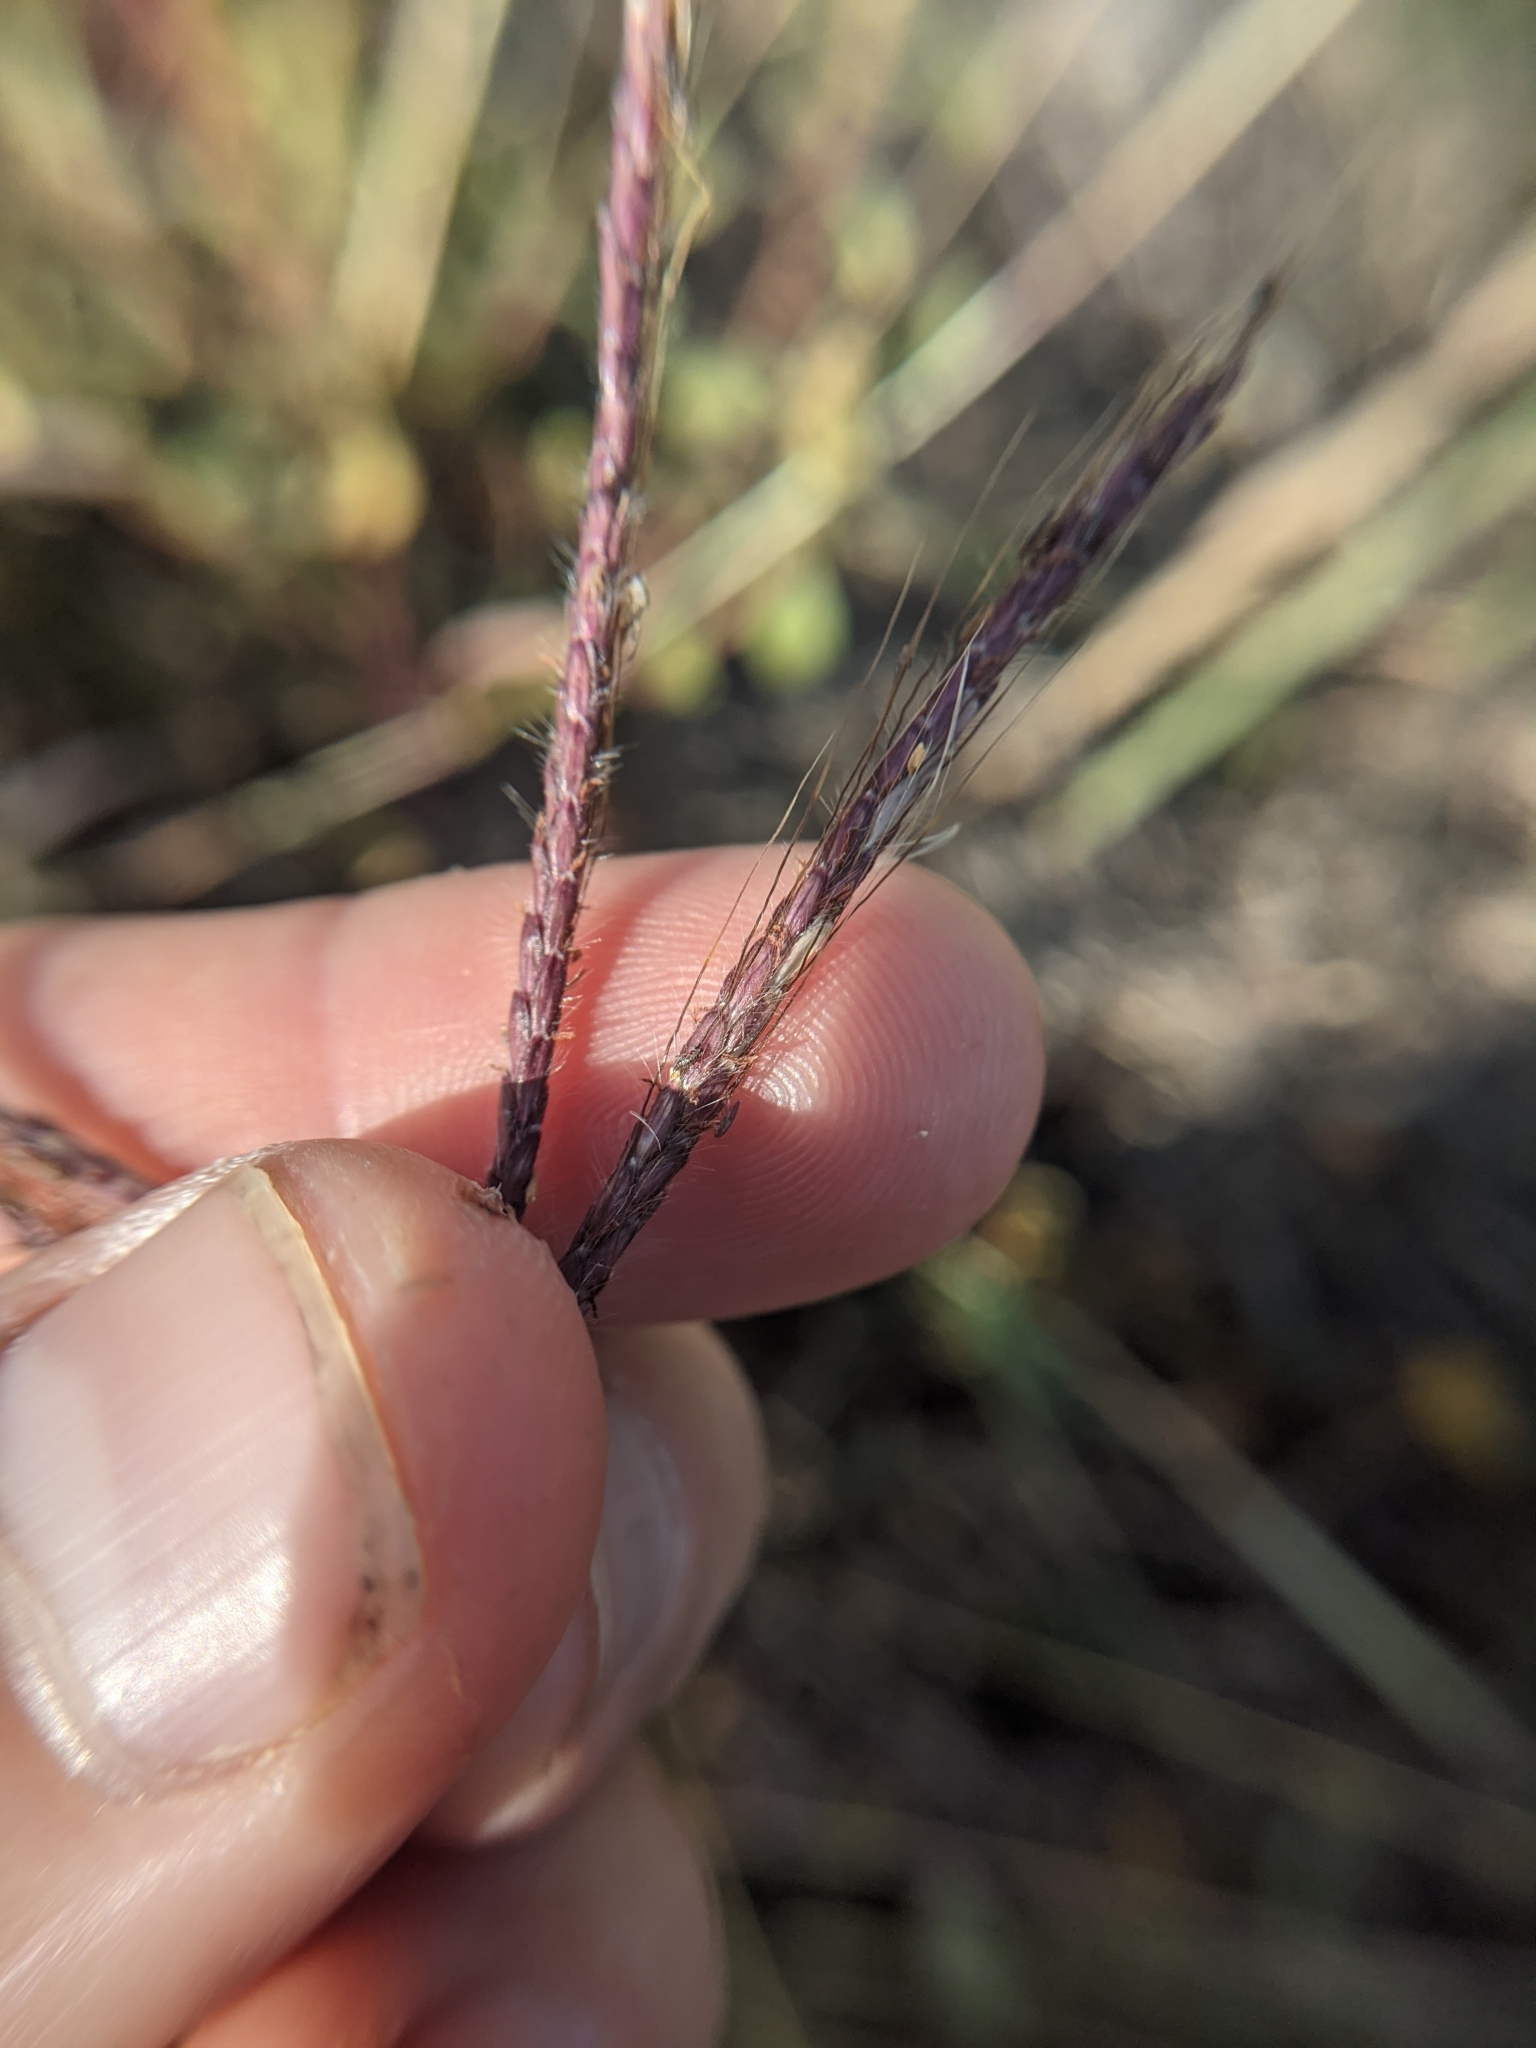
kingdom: Plantae
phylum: Tracheophyta
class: Liliopsida
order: Poales
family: Poaceae
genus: Dichanthium
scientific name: Dichanthium annulatum
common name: Kleberg's bluestem
